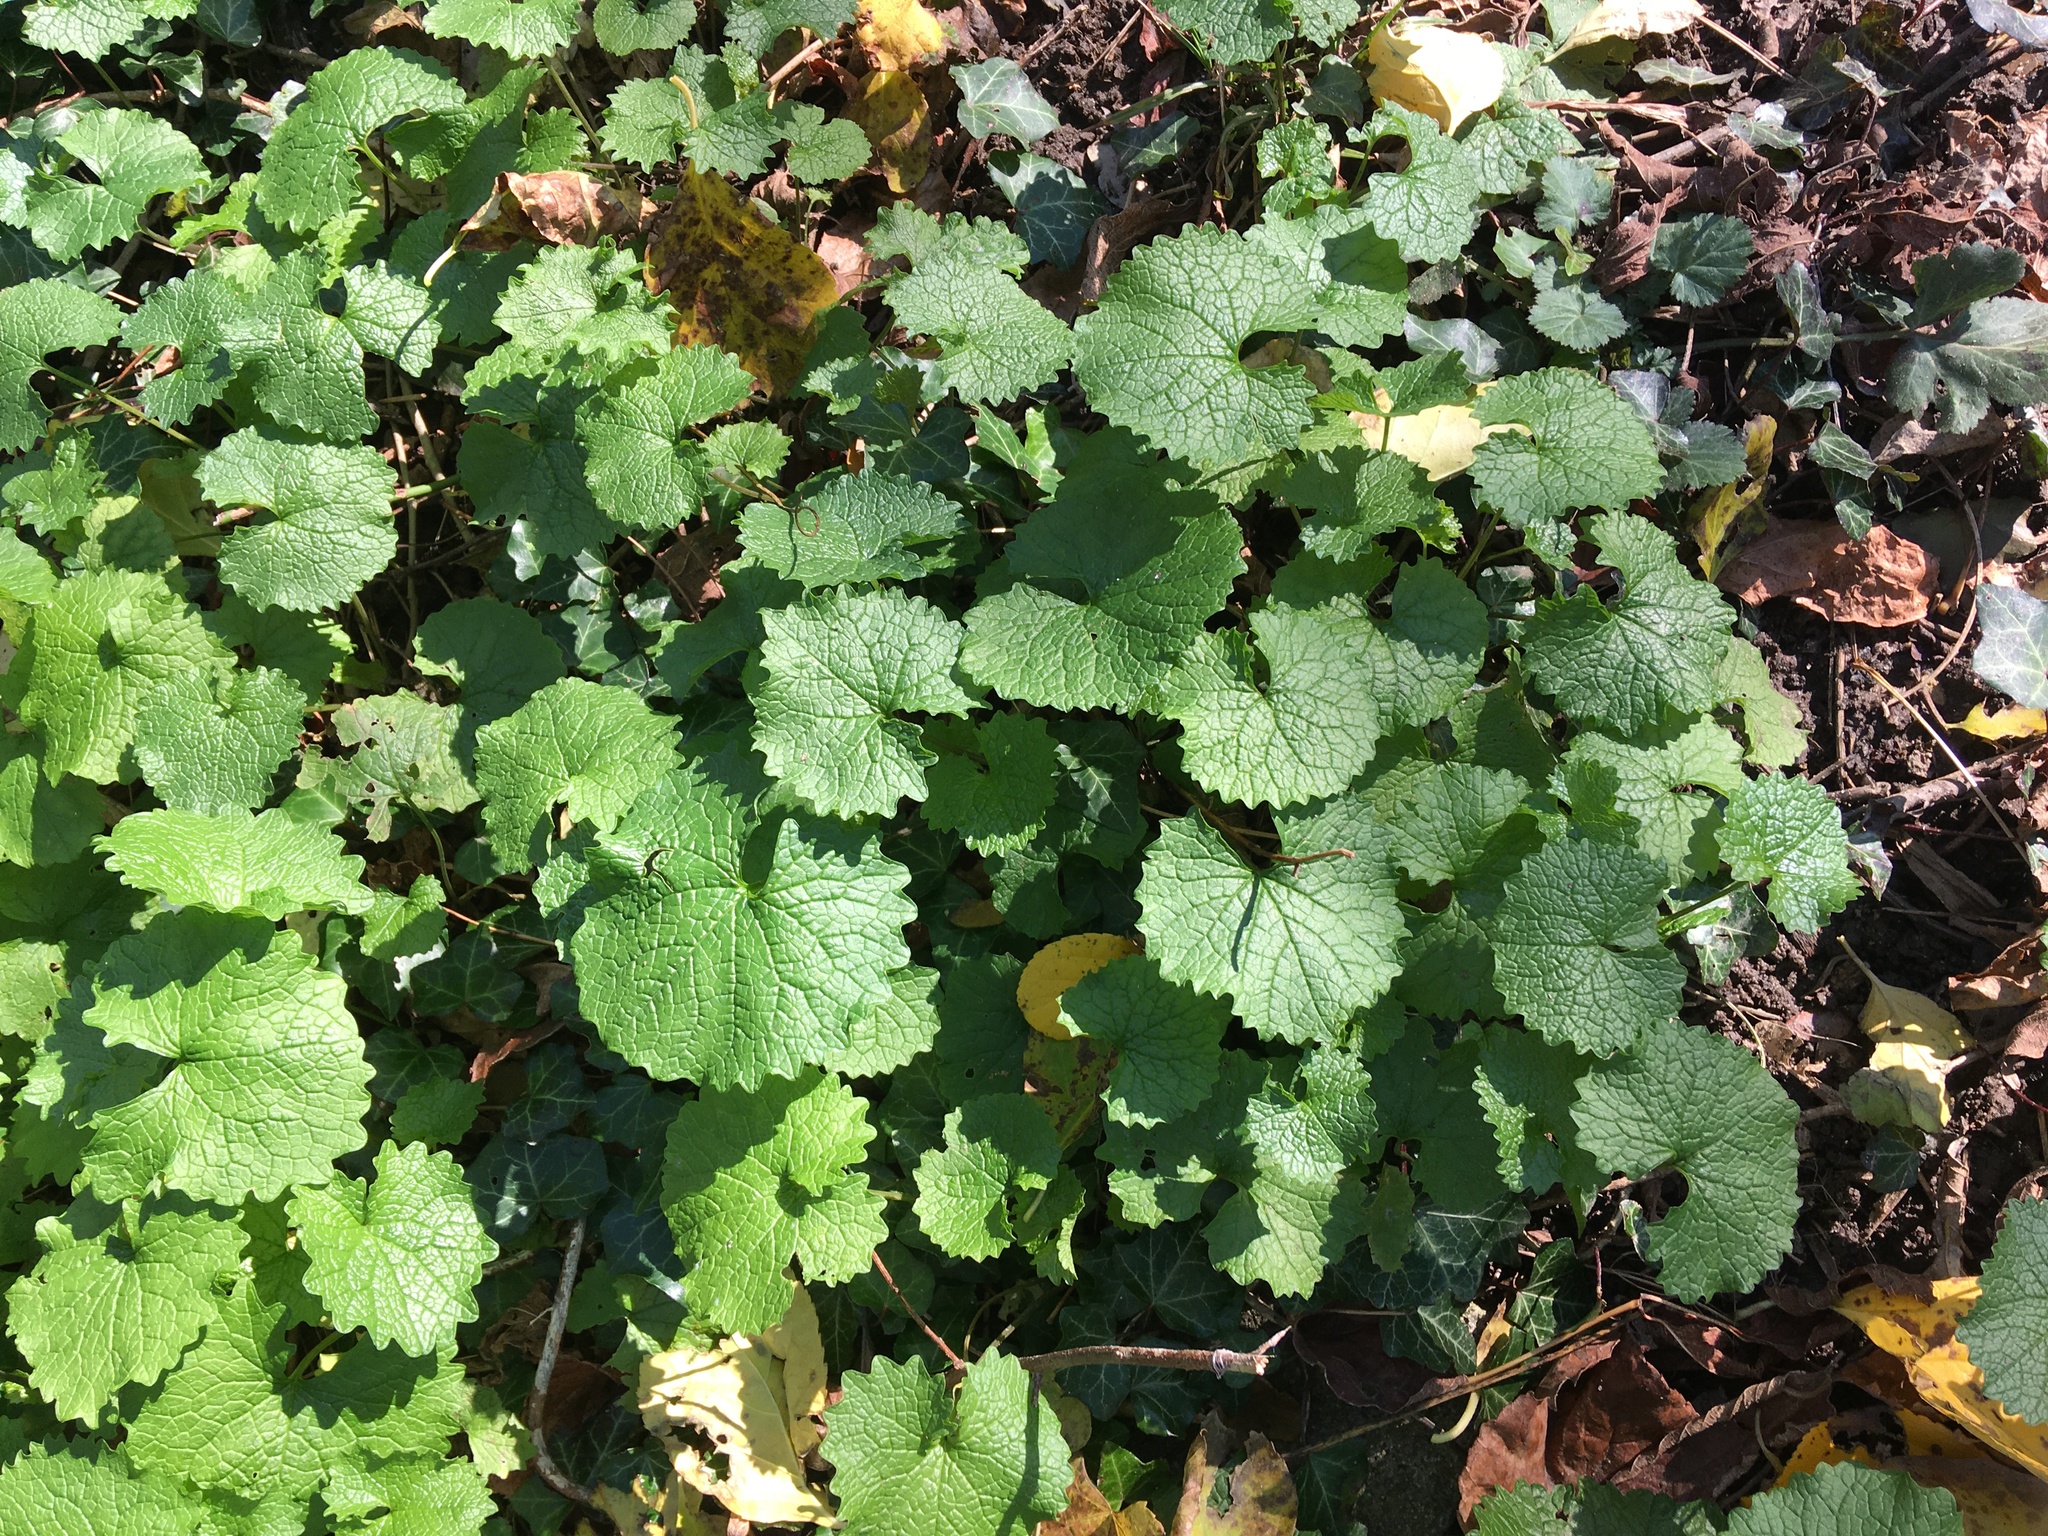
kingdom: Plantae
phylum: Tracheophyta
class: Magnoliopsida
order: Brassicales
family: Brassicaceae
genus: Alliaria
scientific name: Alliaria petiolata
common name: Garlic mustard
